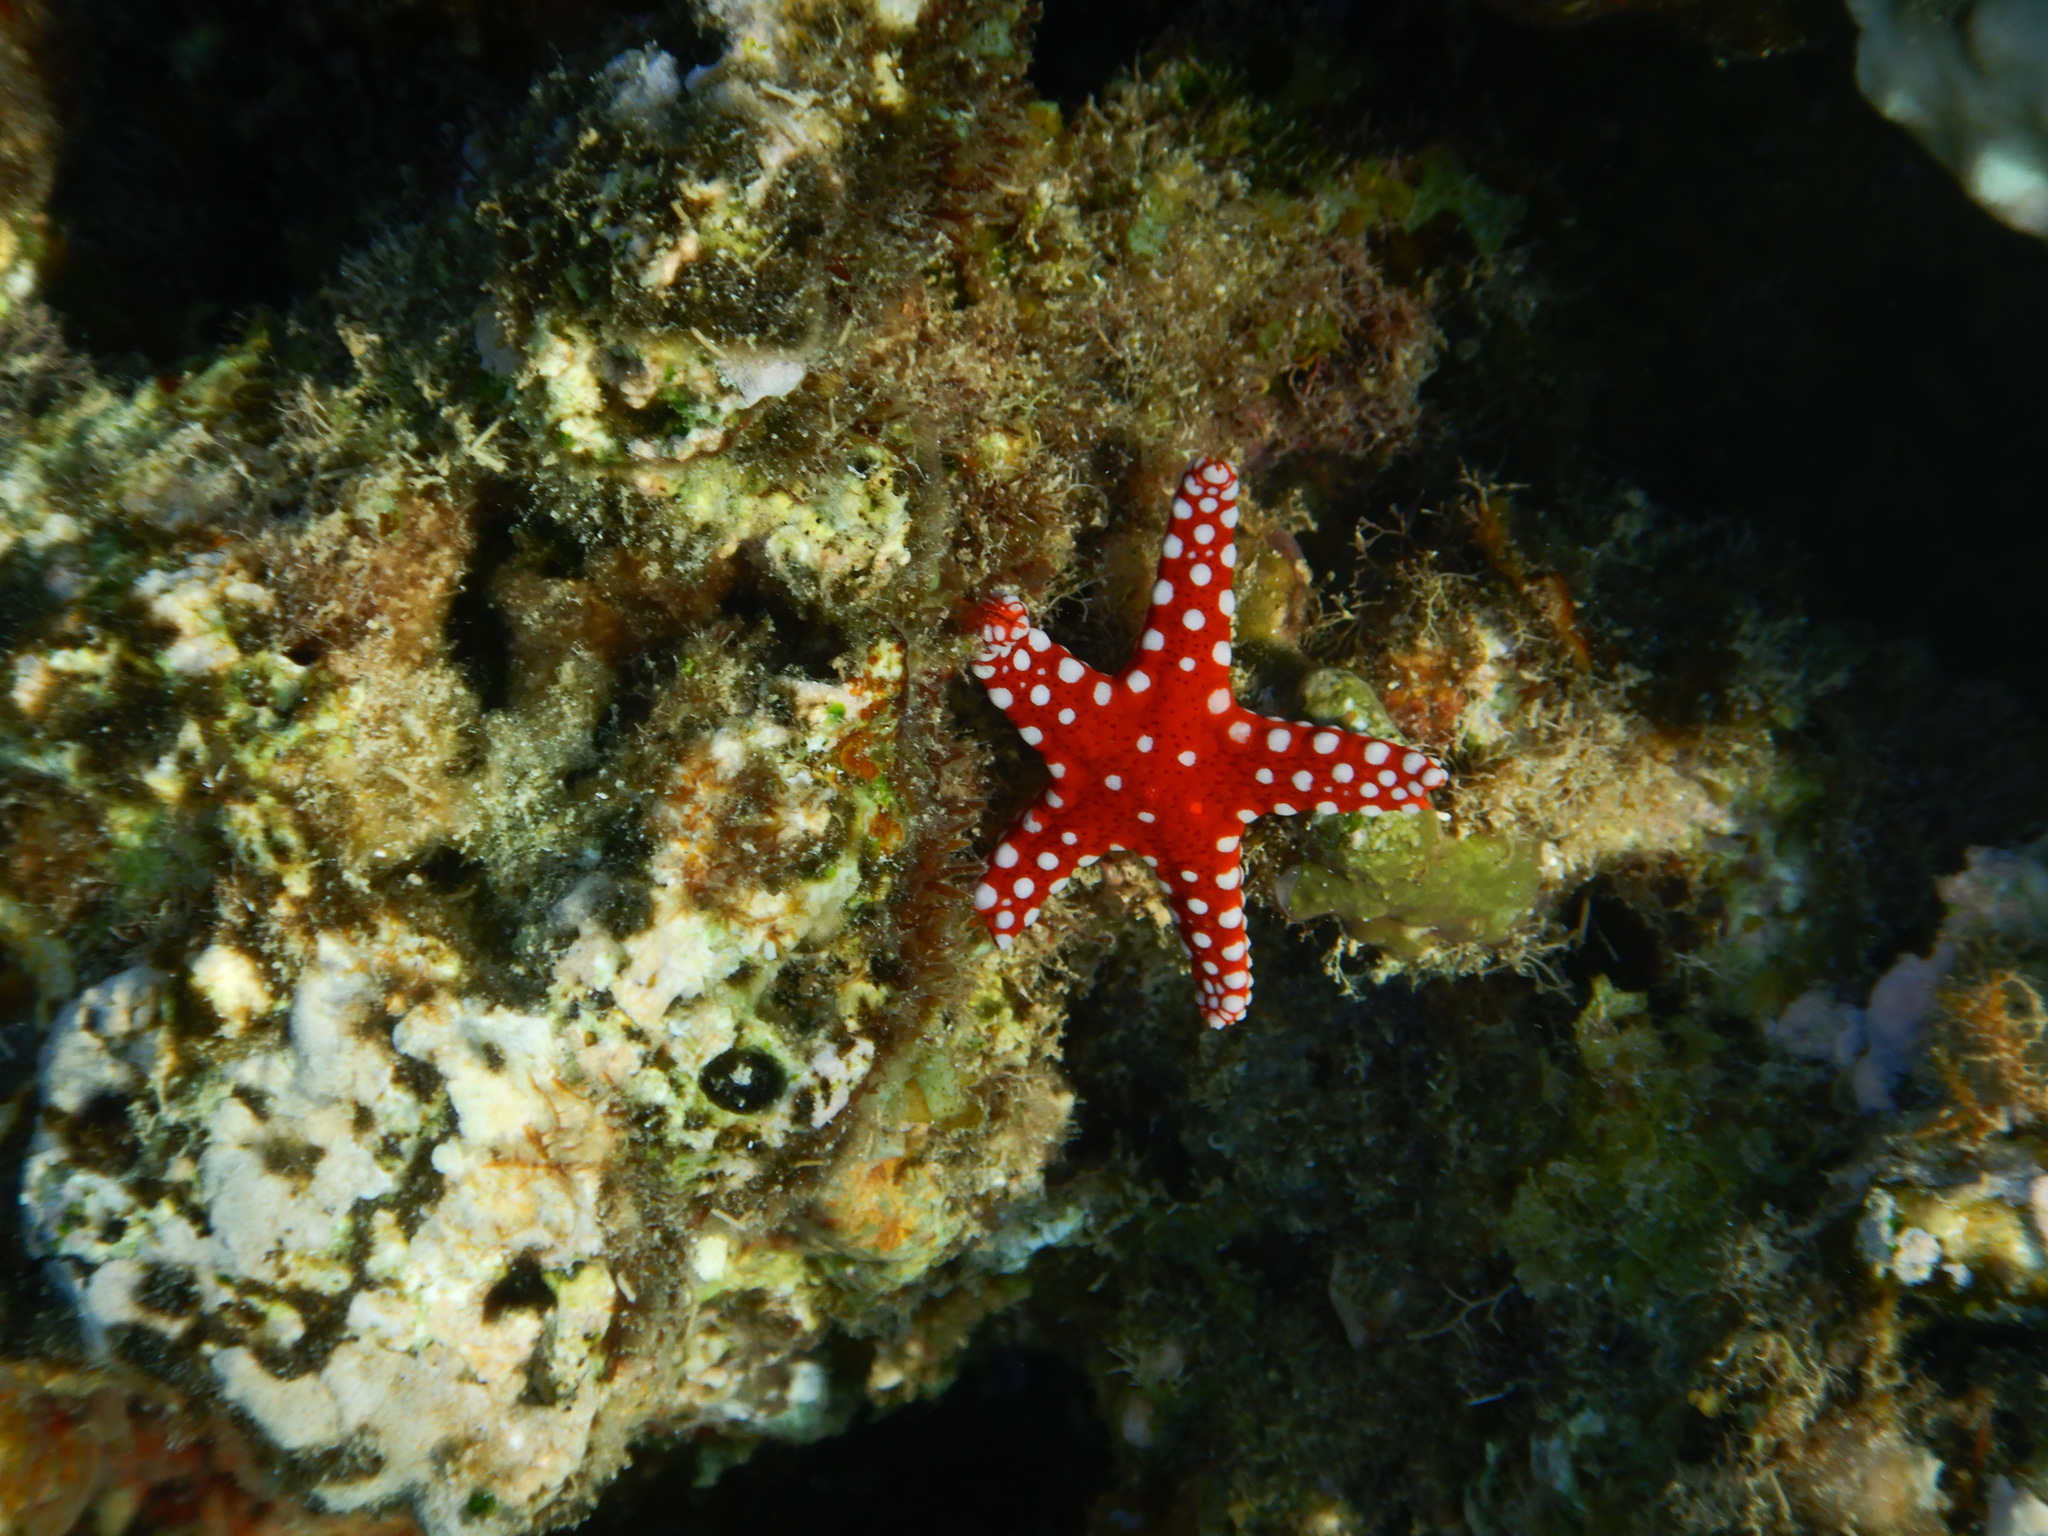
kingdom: Animalia
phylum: Echinodermata
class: Asteroidea
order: Valvatida
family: Goniasteridae
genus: Fromia
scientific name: Fromia ghardaqana
